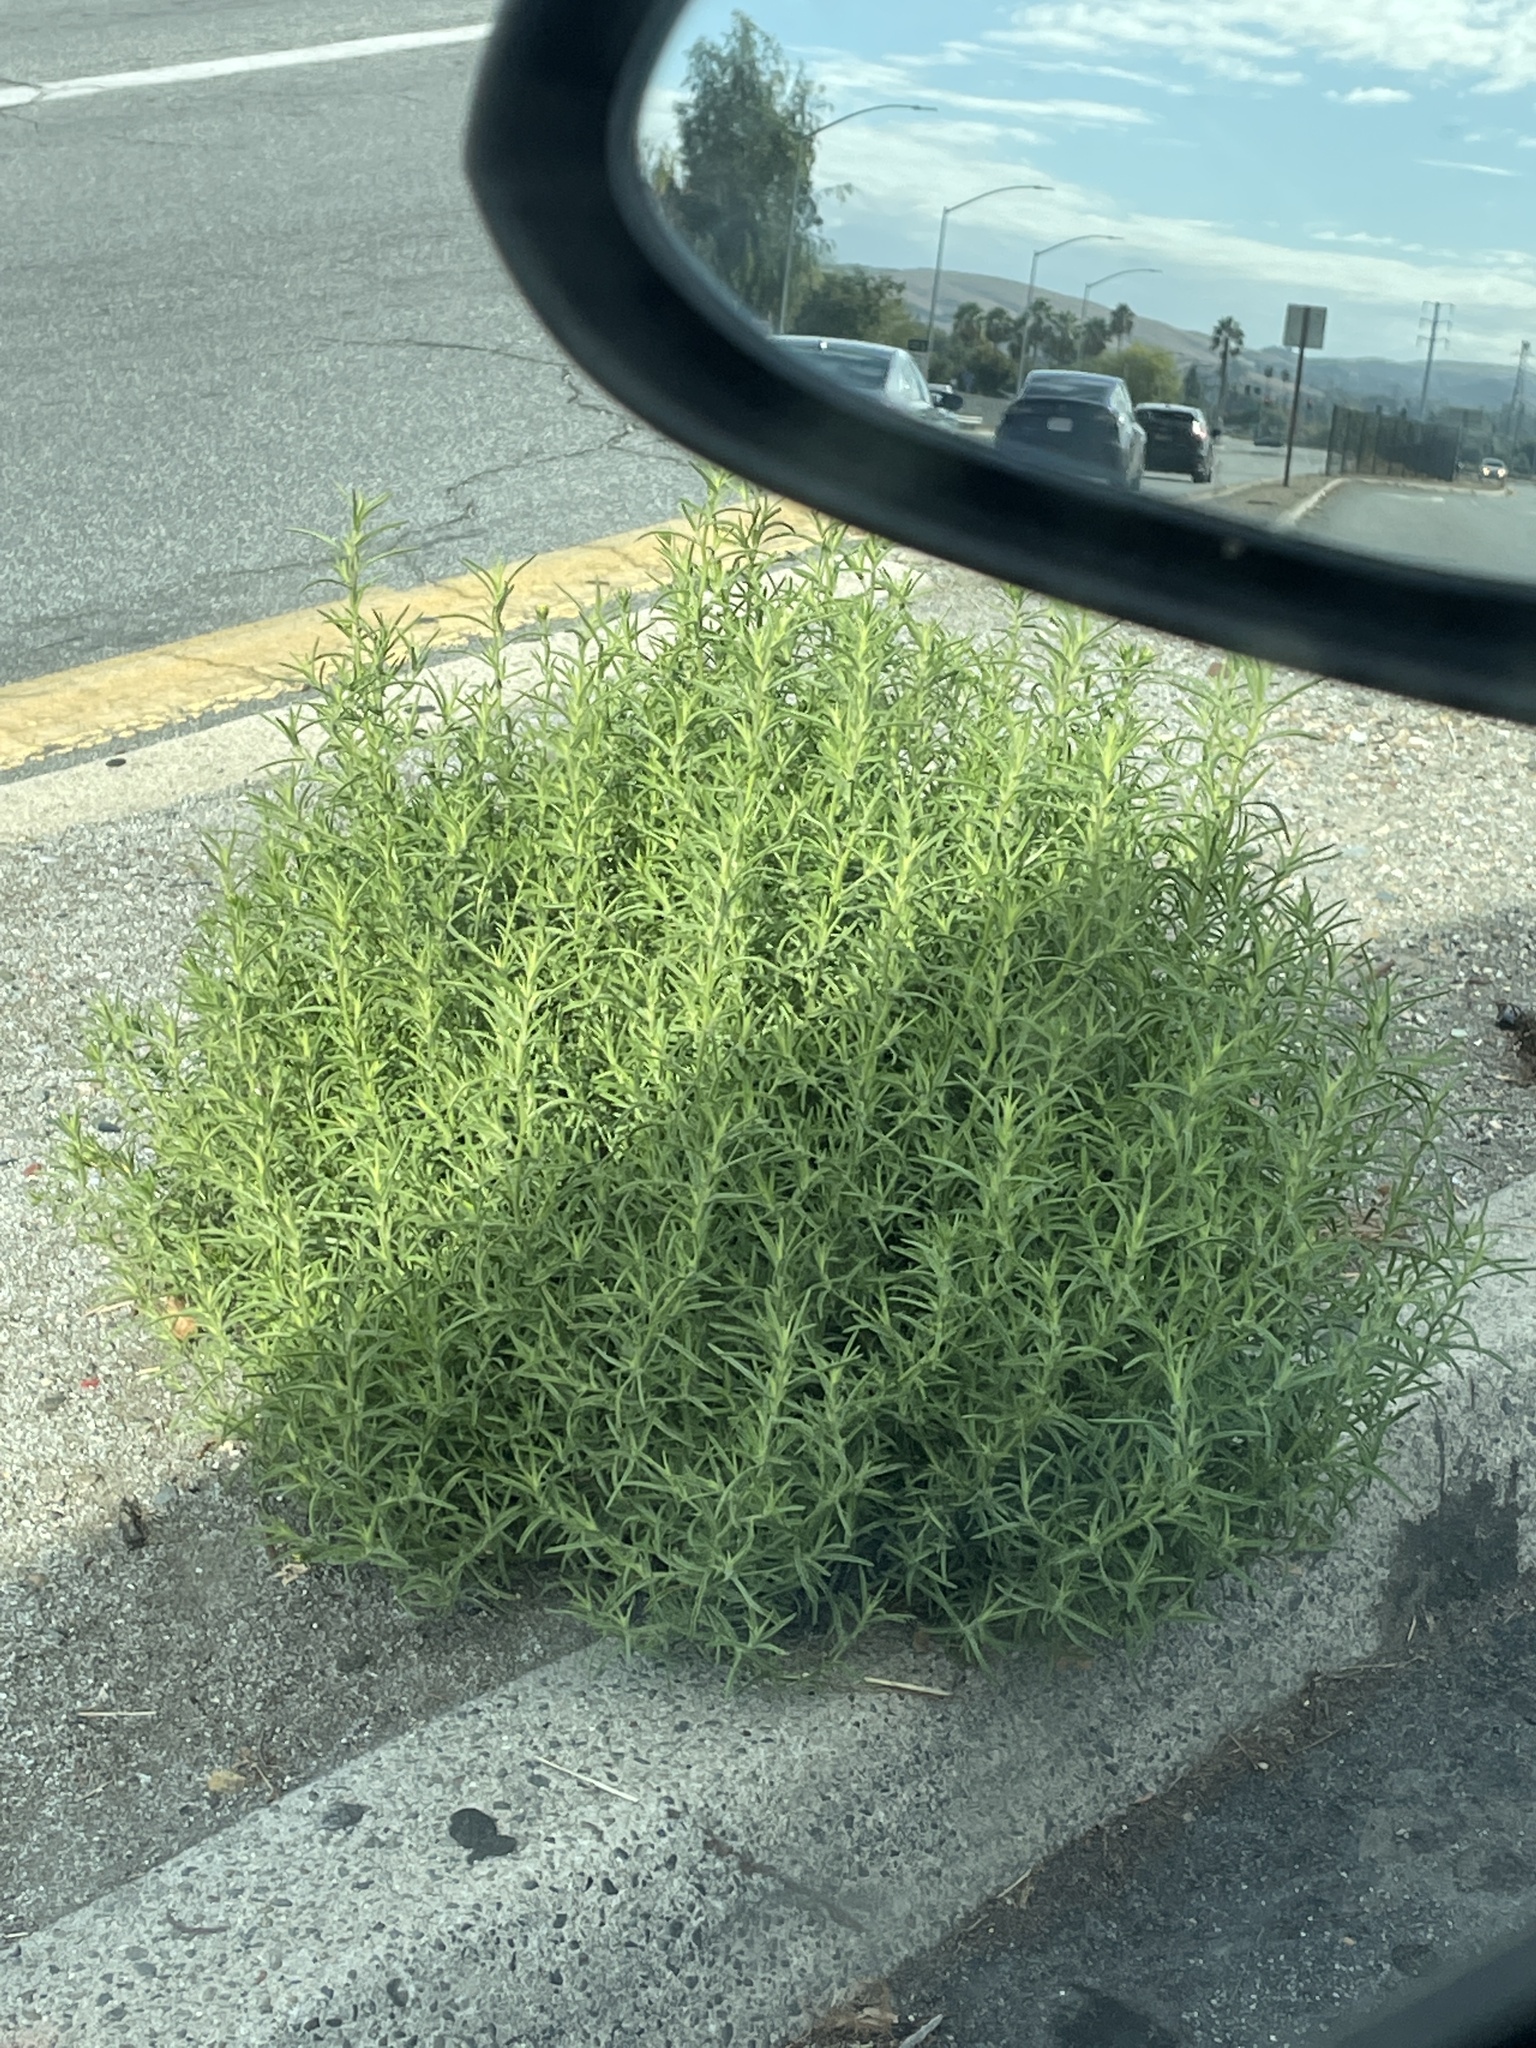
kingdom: Plantae
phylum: Tracheophyta
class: Magnoliopsida
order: Asterales
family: Asteraceae
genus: Dittrichia
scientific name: Dittrichia graveolens
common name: Stinking fleabane
